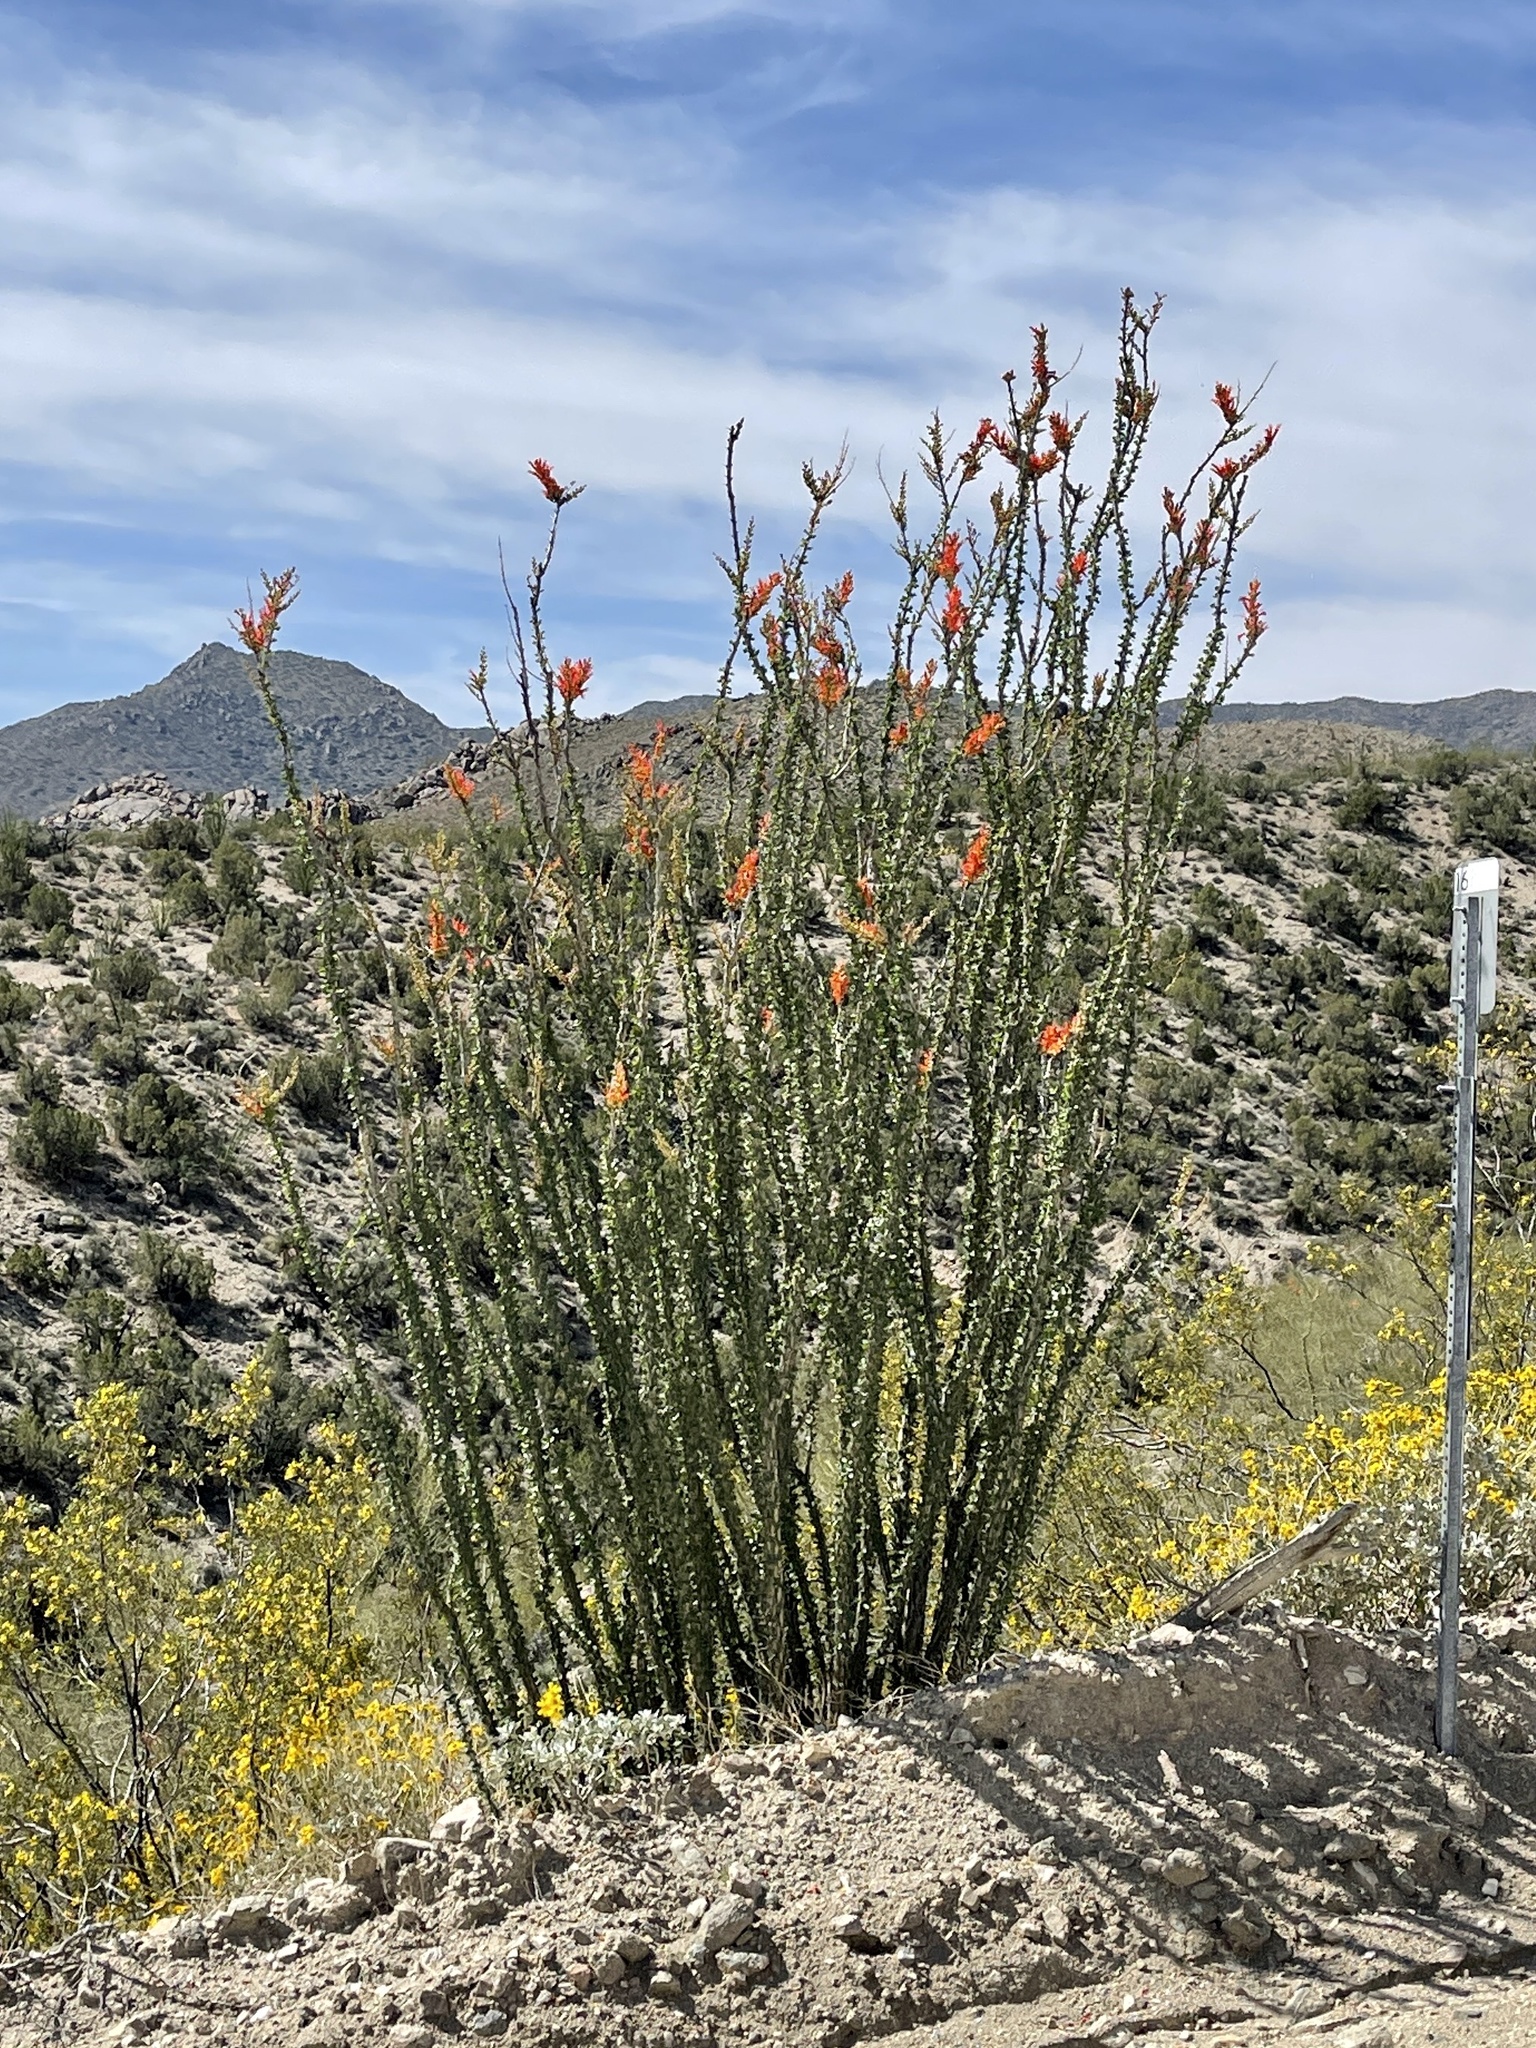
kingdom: Plantae
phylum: Tracheophyta
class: Magnoliopsida
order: Ericales
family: Fouquieriaceae
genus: Fouquieria
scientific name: Fouquieria splendens
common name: Vine-cactus
